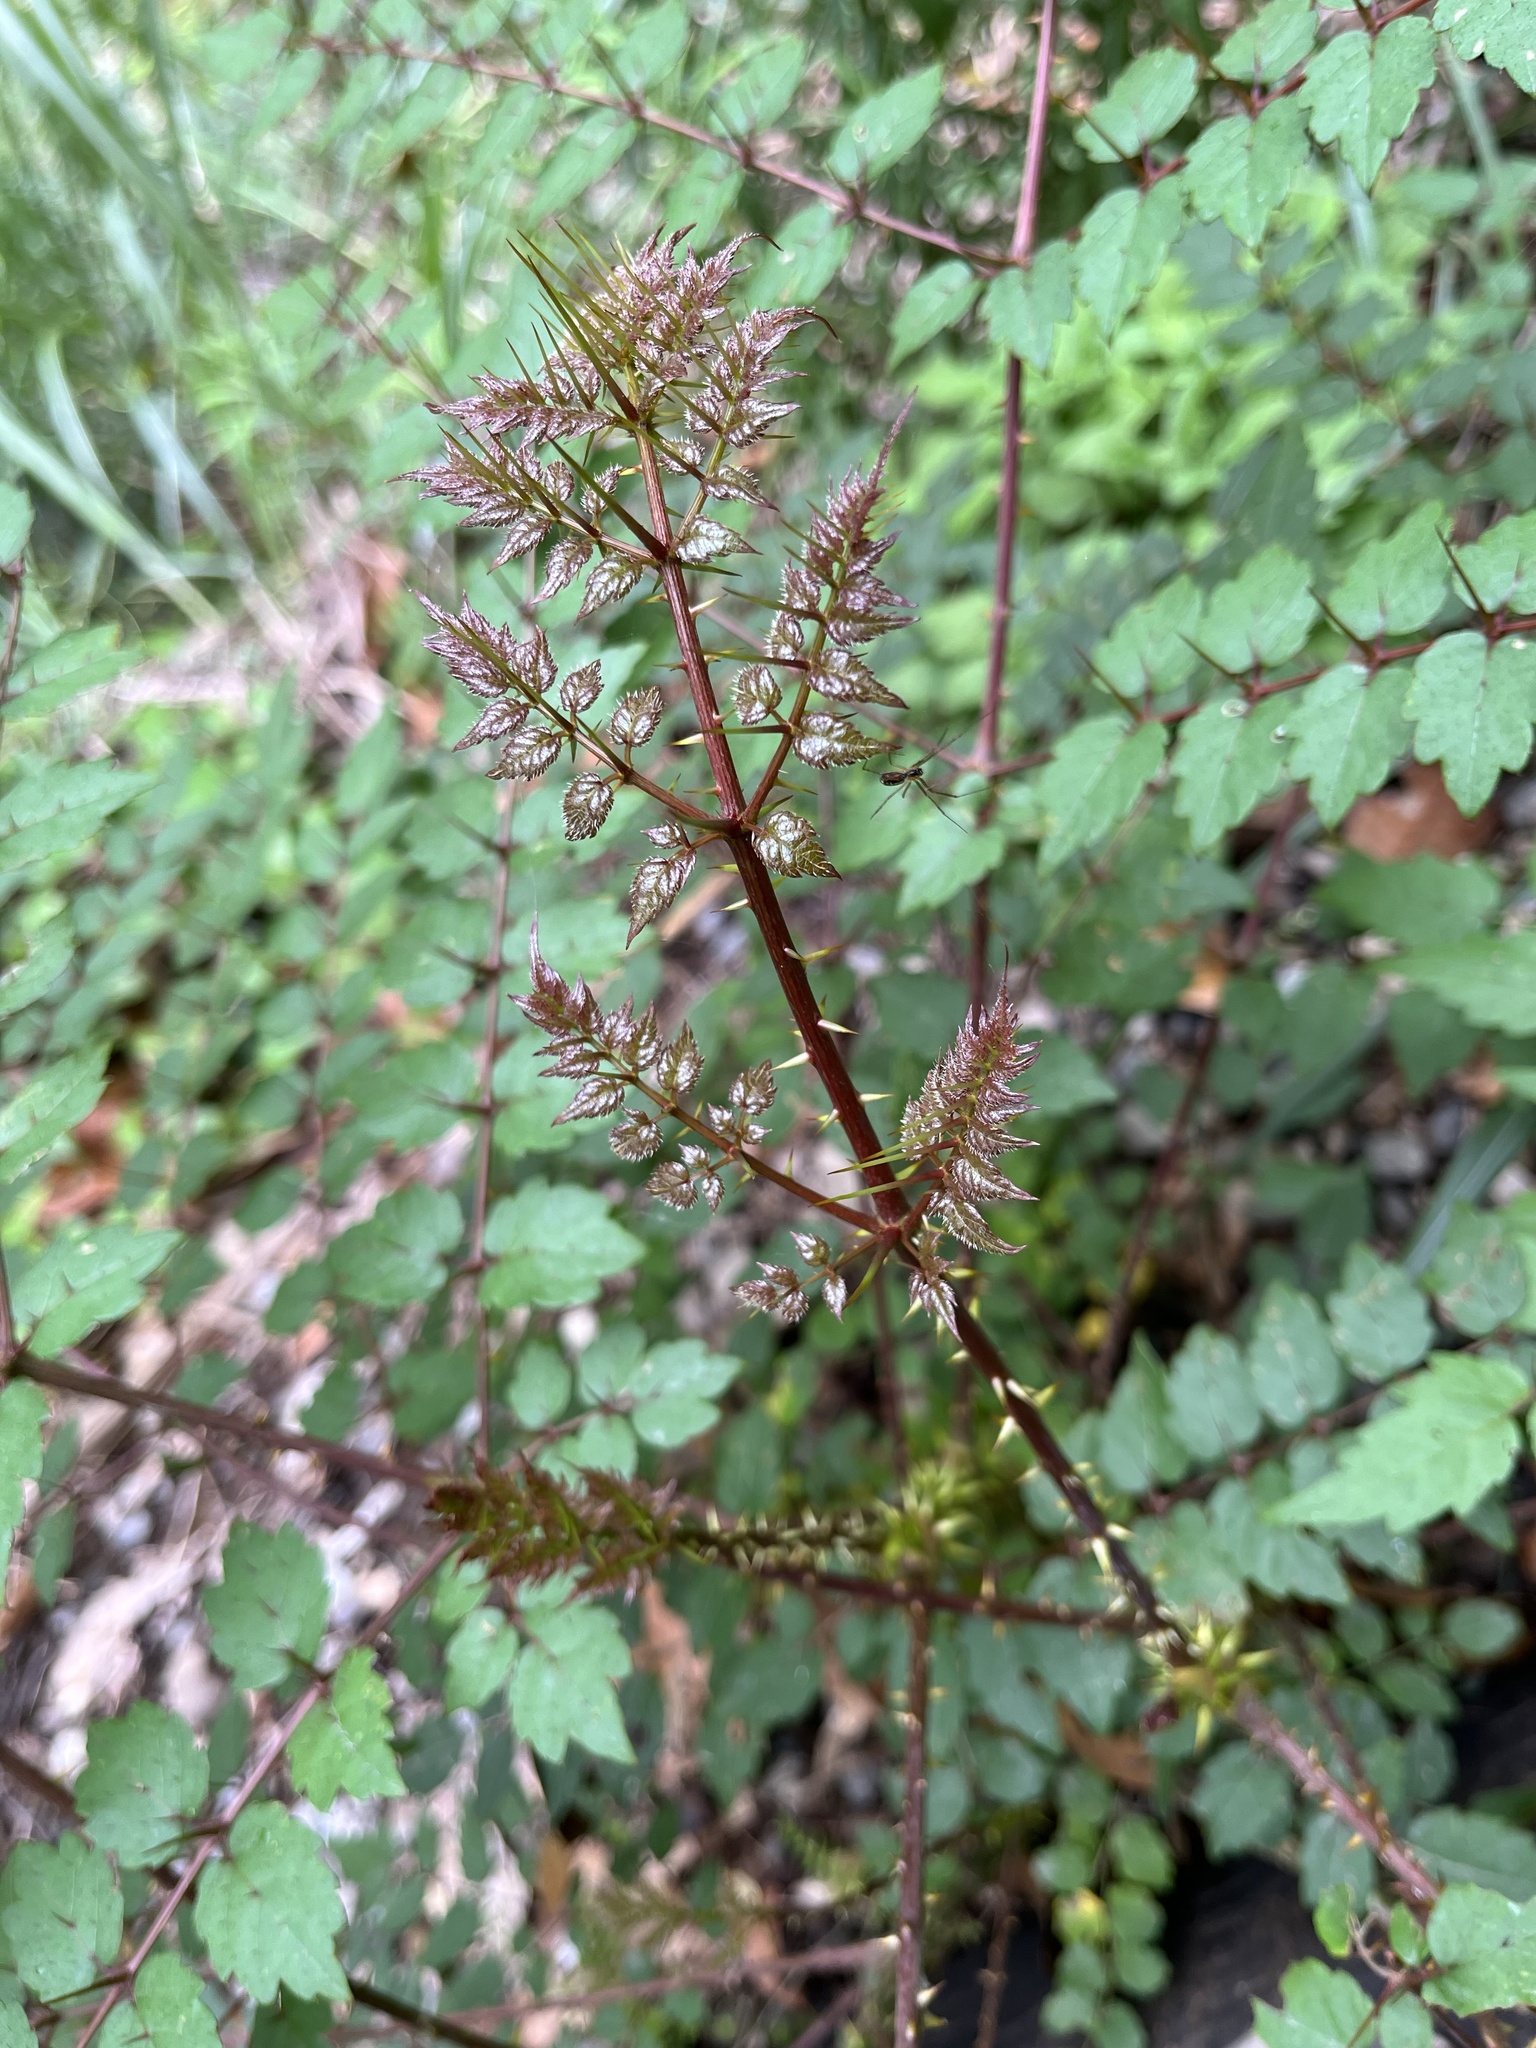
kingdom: Plantae
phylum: Tracheophyta
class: Magnoliopsida
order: Apiales
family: Araliaceae
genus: Aralia
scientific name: Aralia bipinnata
